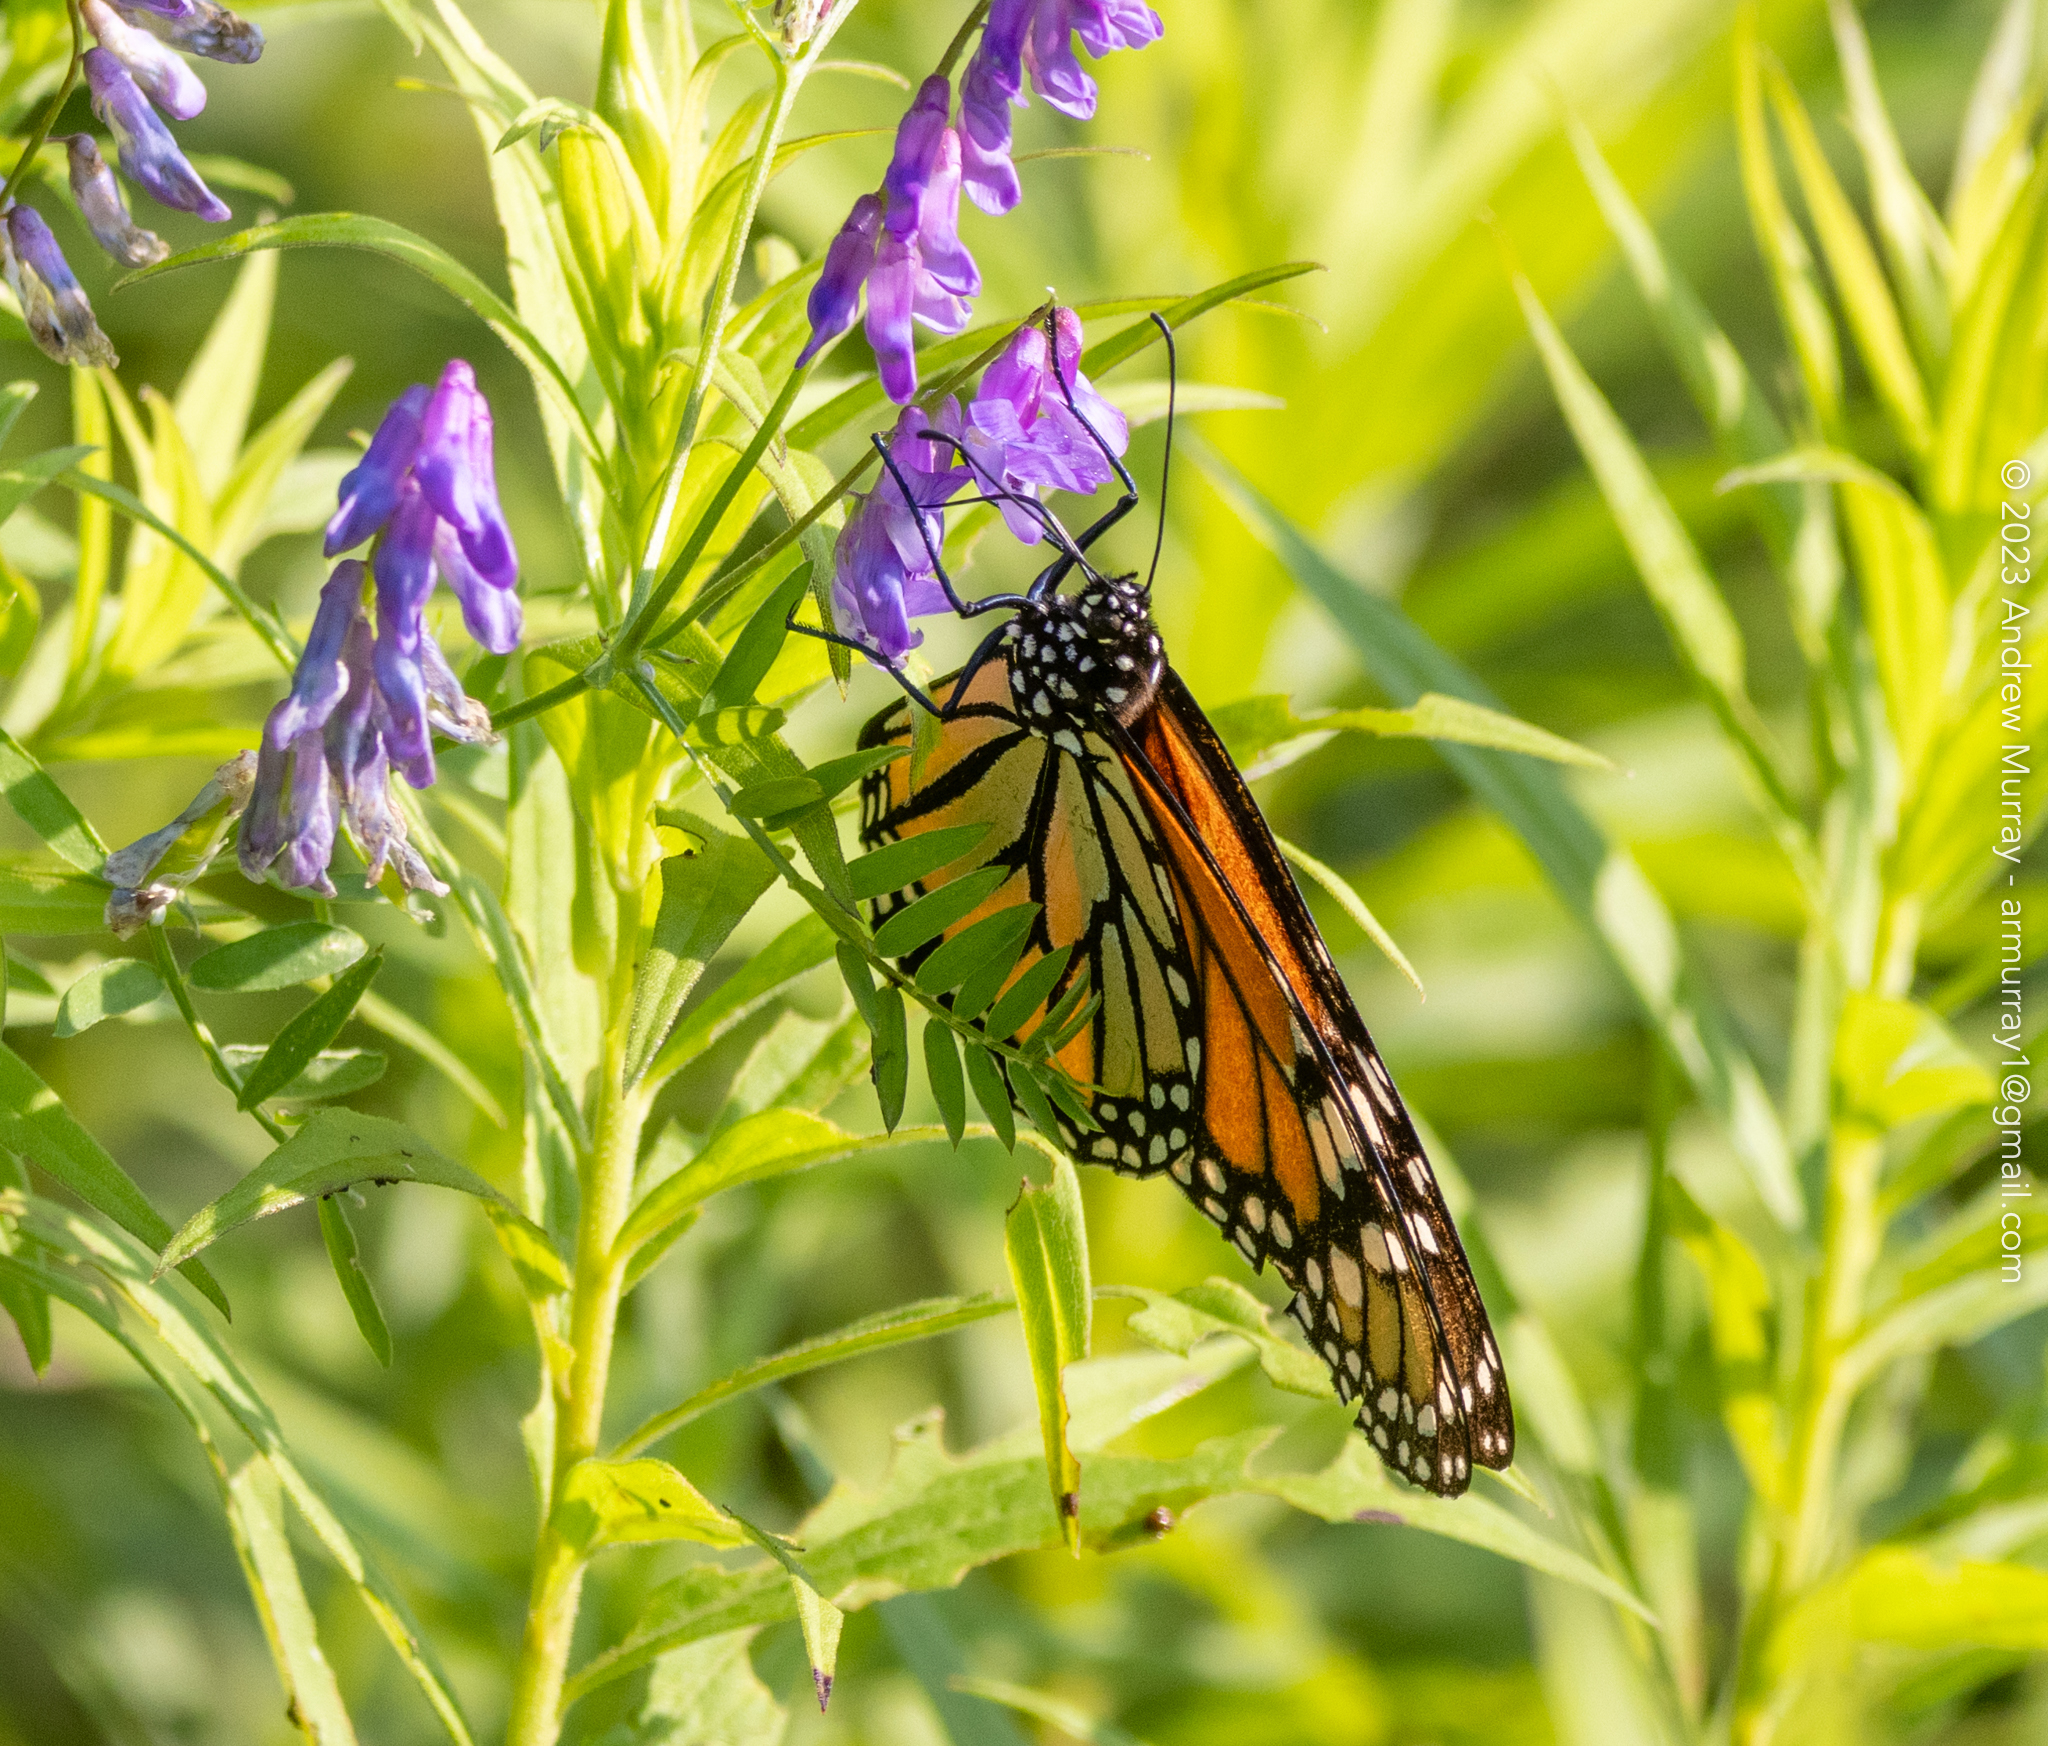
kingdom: Animalia
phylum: Arthropoda
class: Insecta
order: Lepidoptera
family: Nymphalidae
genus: Danaus
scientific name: Danaus plexippus
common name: Monarch
